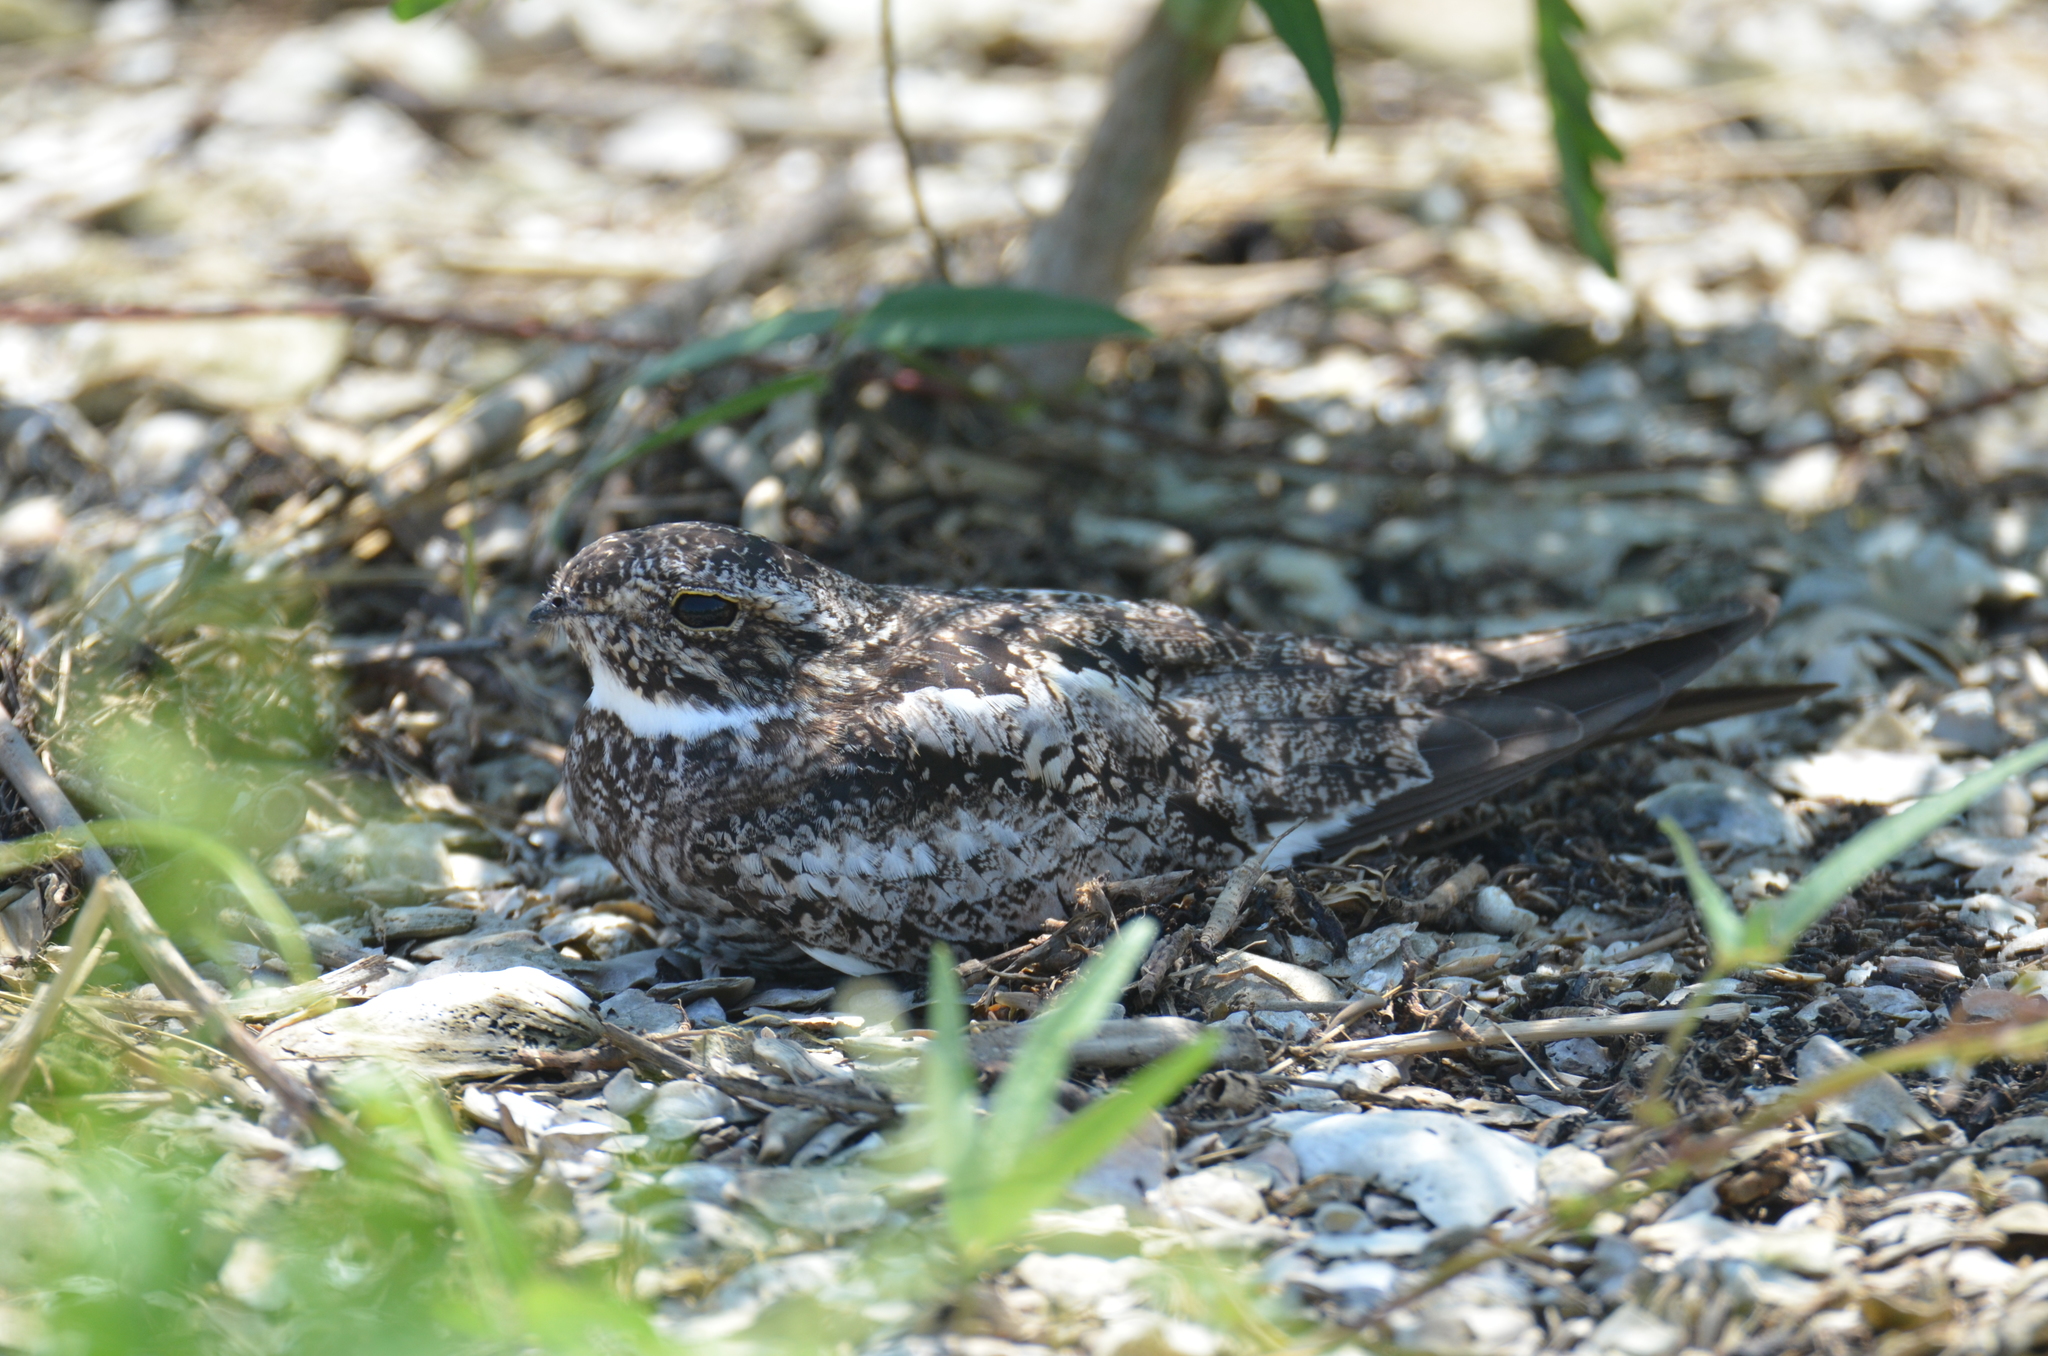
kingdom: Animalia
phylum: Chordata
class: Aves
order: Caprimulgiformes
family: Caprimulgidae
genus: Chordeiles
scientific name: Chordeiles minor
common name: Common nighthawk
